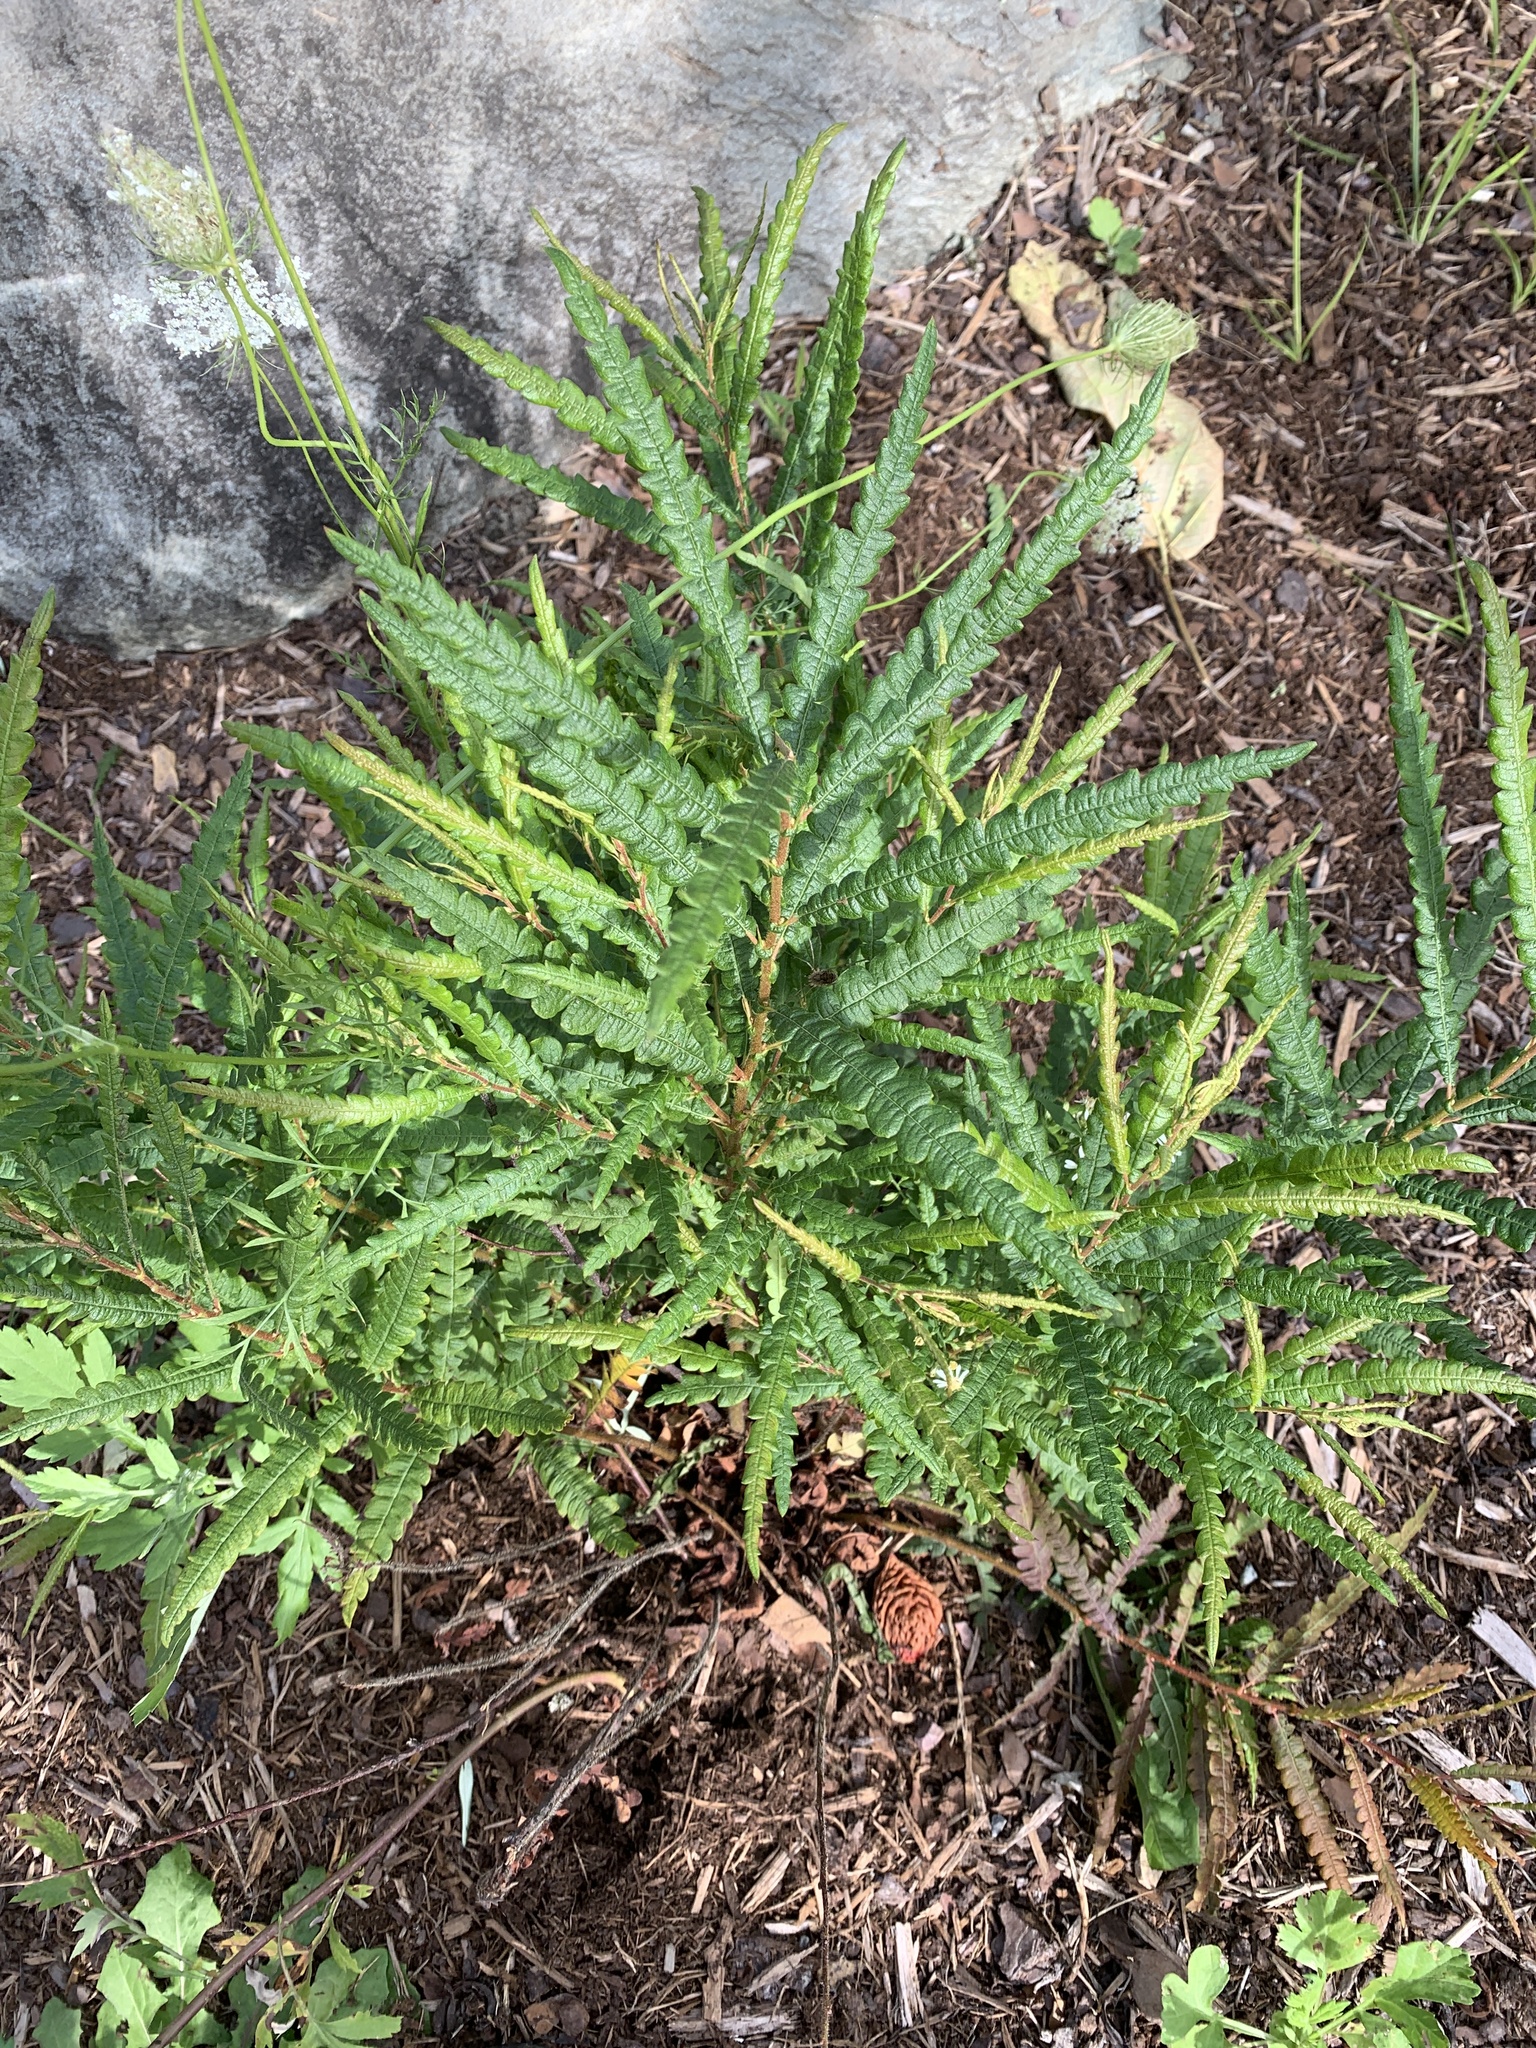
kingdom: Plantae
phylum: Tracheophyta
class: Magnoliopsida
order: Fagales
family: Myricaceae
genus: Comptonia
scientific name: Comptonia peregrina
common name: Sweet-fern
